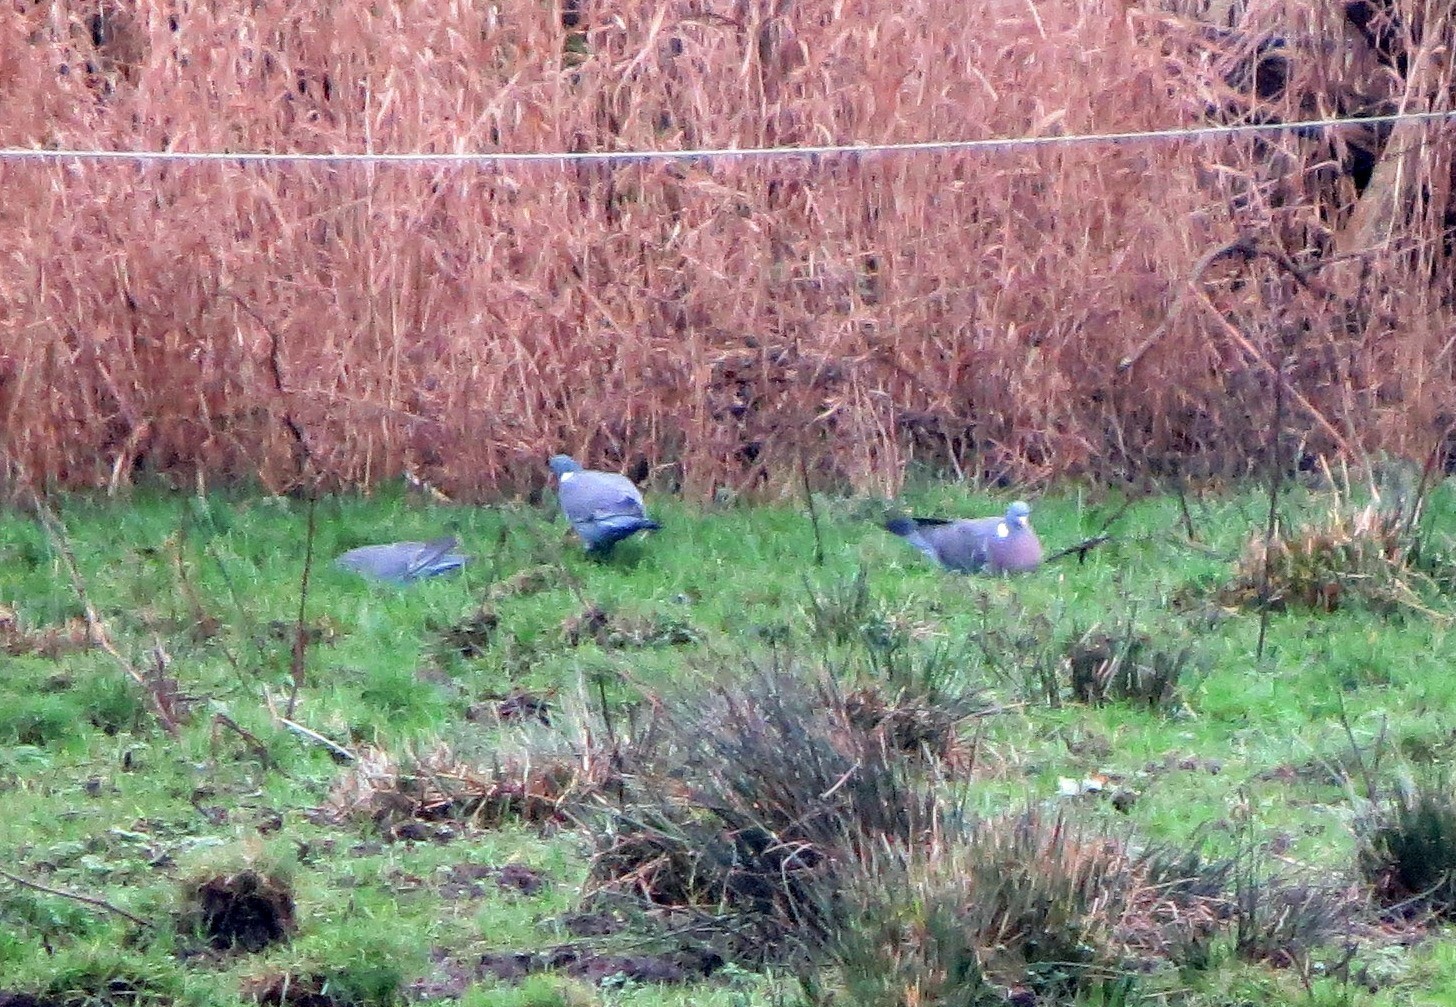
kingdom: Animalia
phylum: Chordata
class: Aves
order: Columbiformes
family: Columbidae
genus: Columba
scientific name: Columba palumbus
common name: Common wood pigeon
